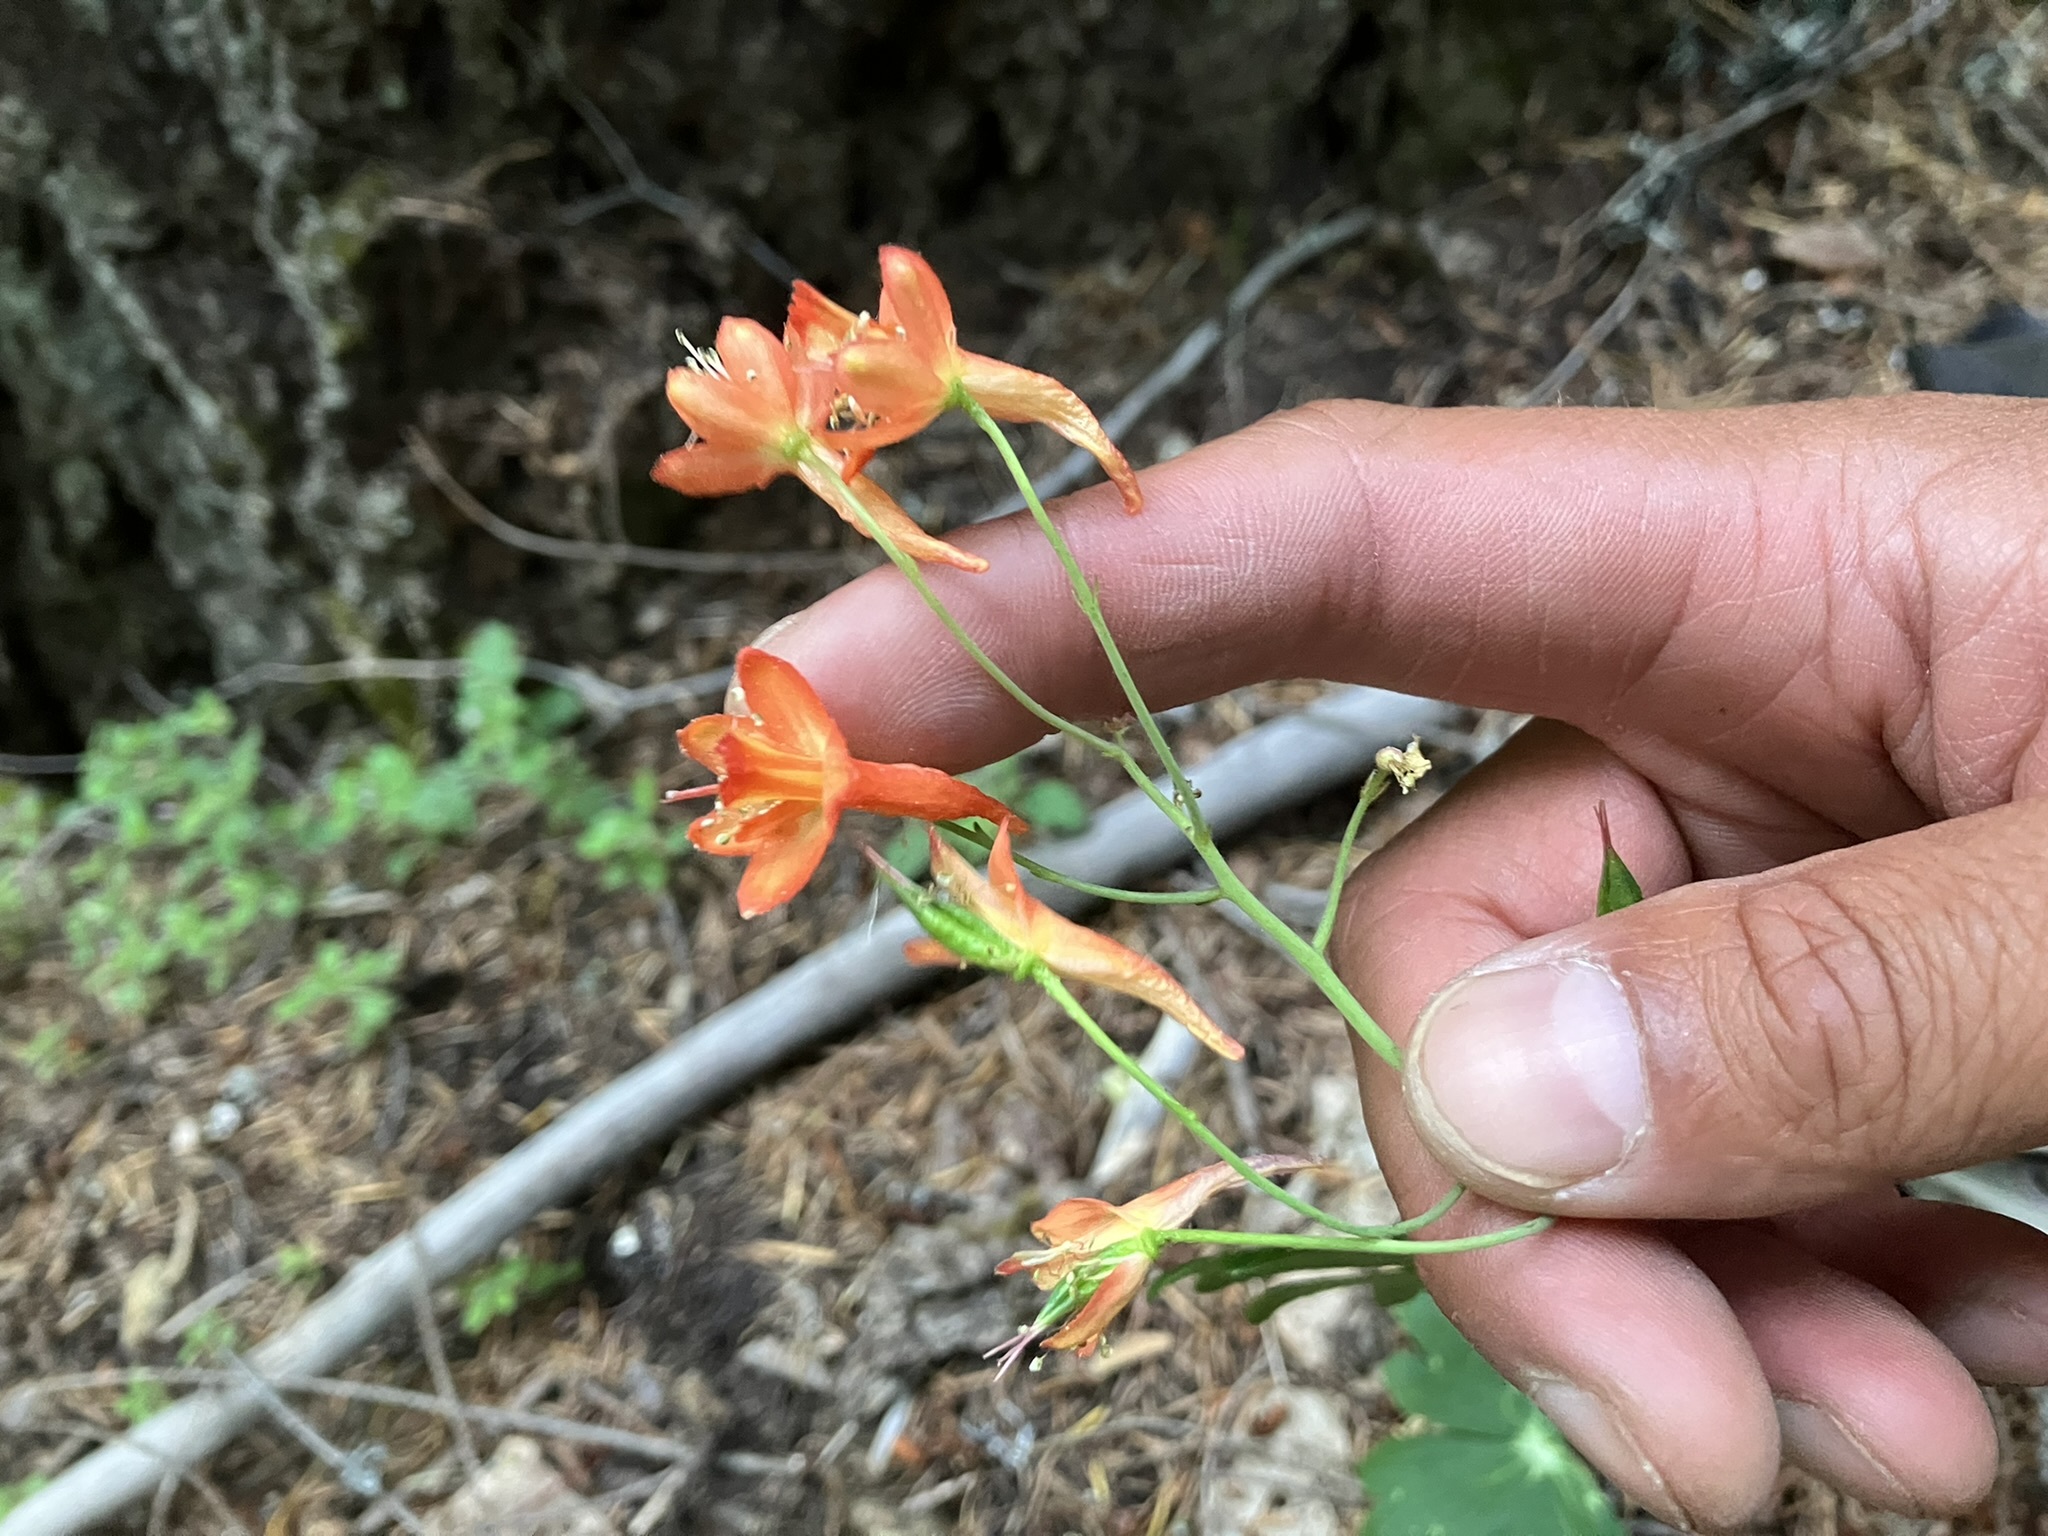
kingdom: Plantae
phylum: Tracheophyta
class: Magnoliopsida
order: Ranunculales
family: Ranunculaceae
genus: Delphinium
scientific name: Delphinium nudicaule
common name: Red larkspur
